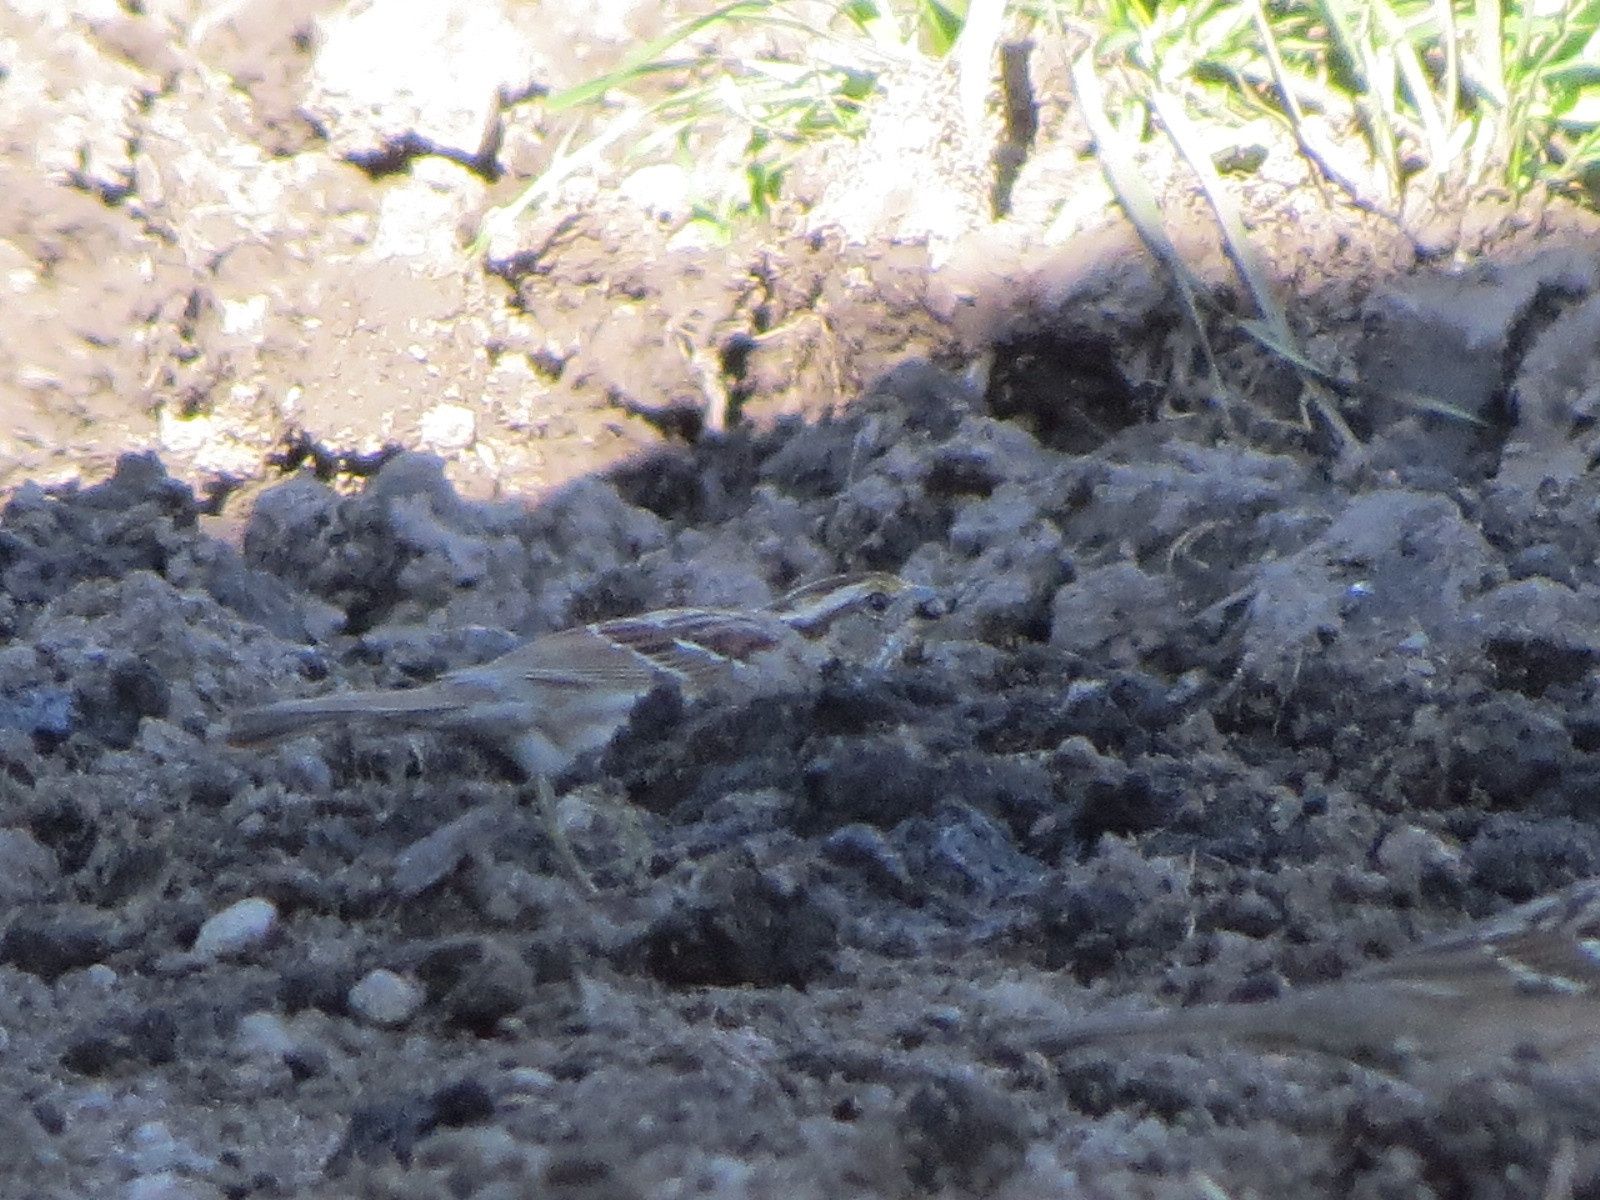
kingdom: Animalia
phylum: Chordata
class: Aves
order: Passeriformes
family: Passerellidae
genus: Zonotrichia
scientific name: Zonotrichia albicollis
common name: White-throated sparrow
